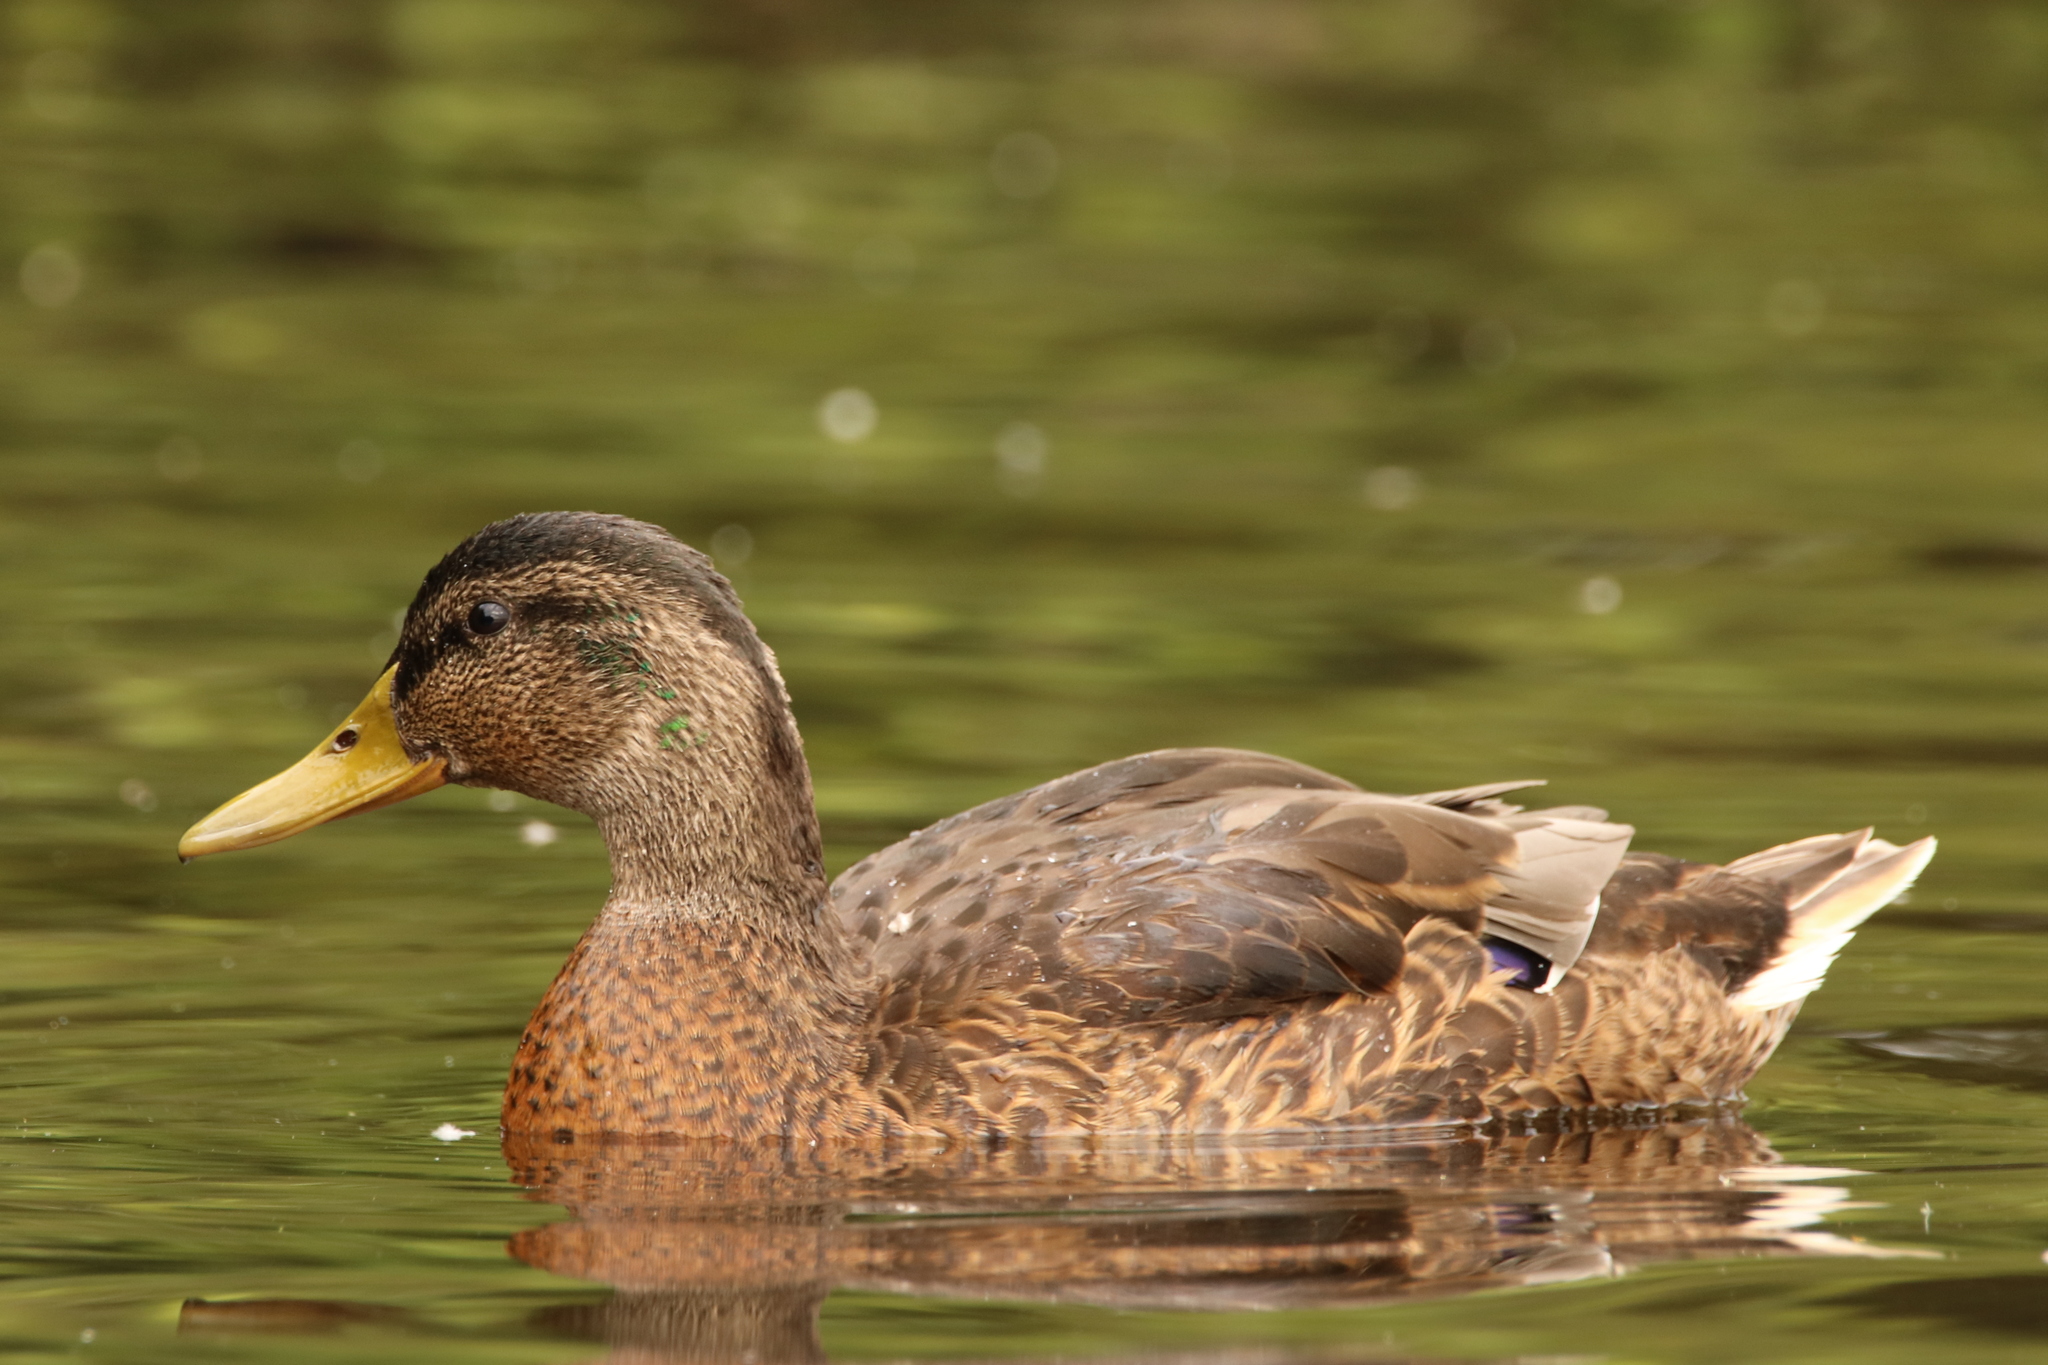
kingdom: Animalia
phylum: Chordata
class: Aves
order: Anseriformes
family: Anatidae
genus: Anas
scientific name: Anas platyrhynchos
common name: Mallard
